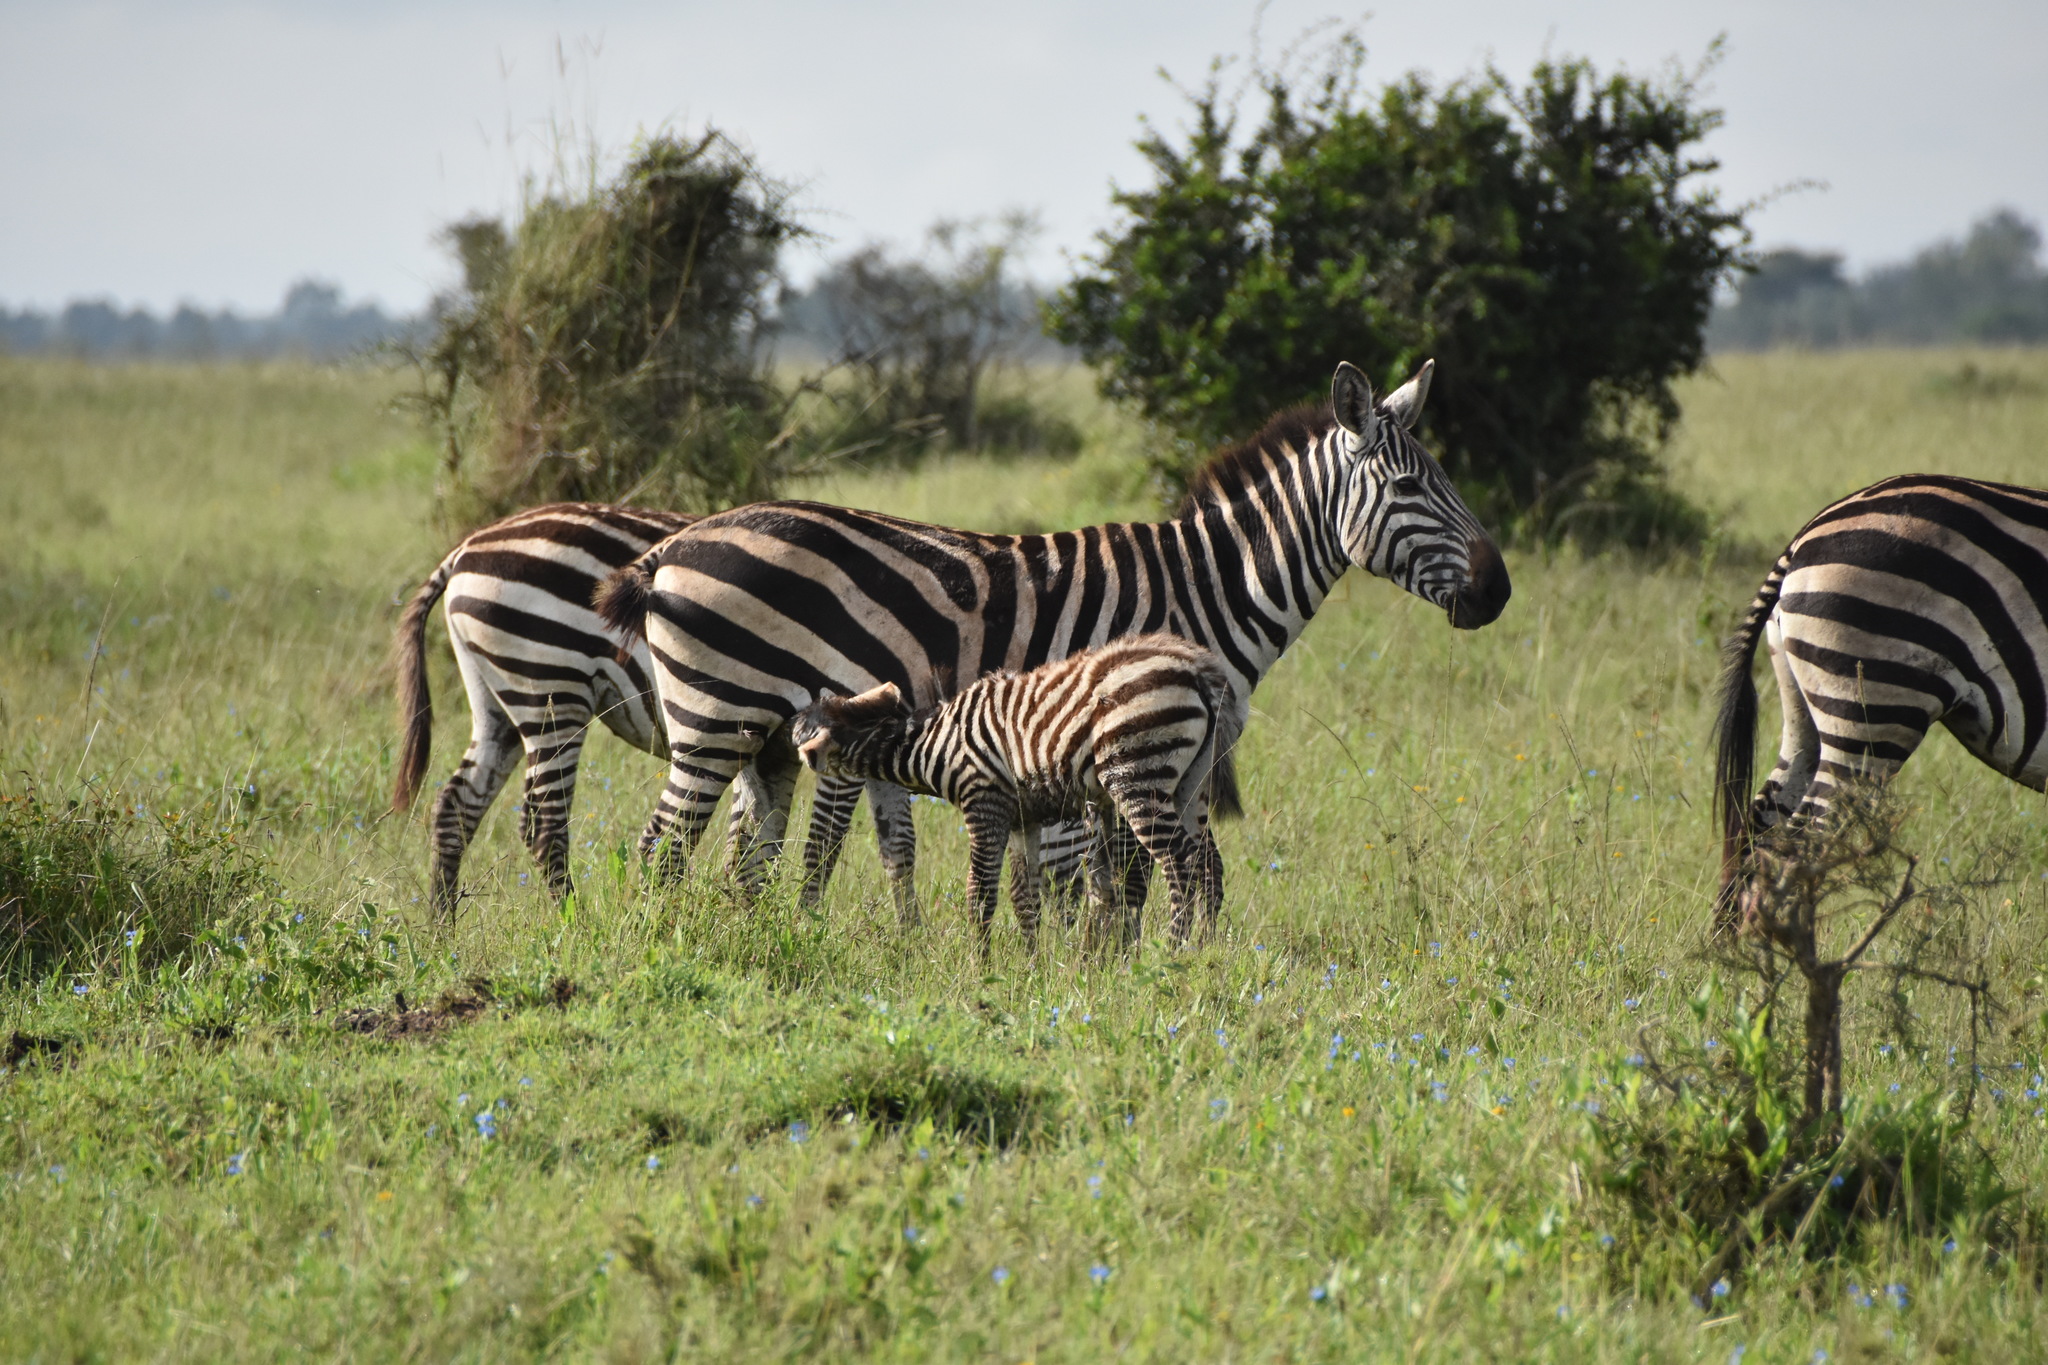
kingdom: Animalia
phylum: Chordata
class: Mammalia
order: Perissodactyla
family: Equidae
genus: Equus
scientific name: Equus quagga
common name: Plains zebra
